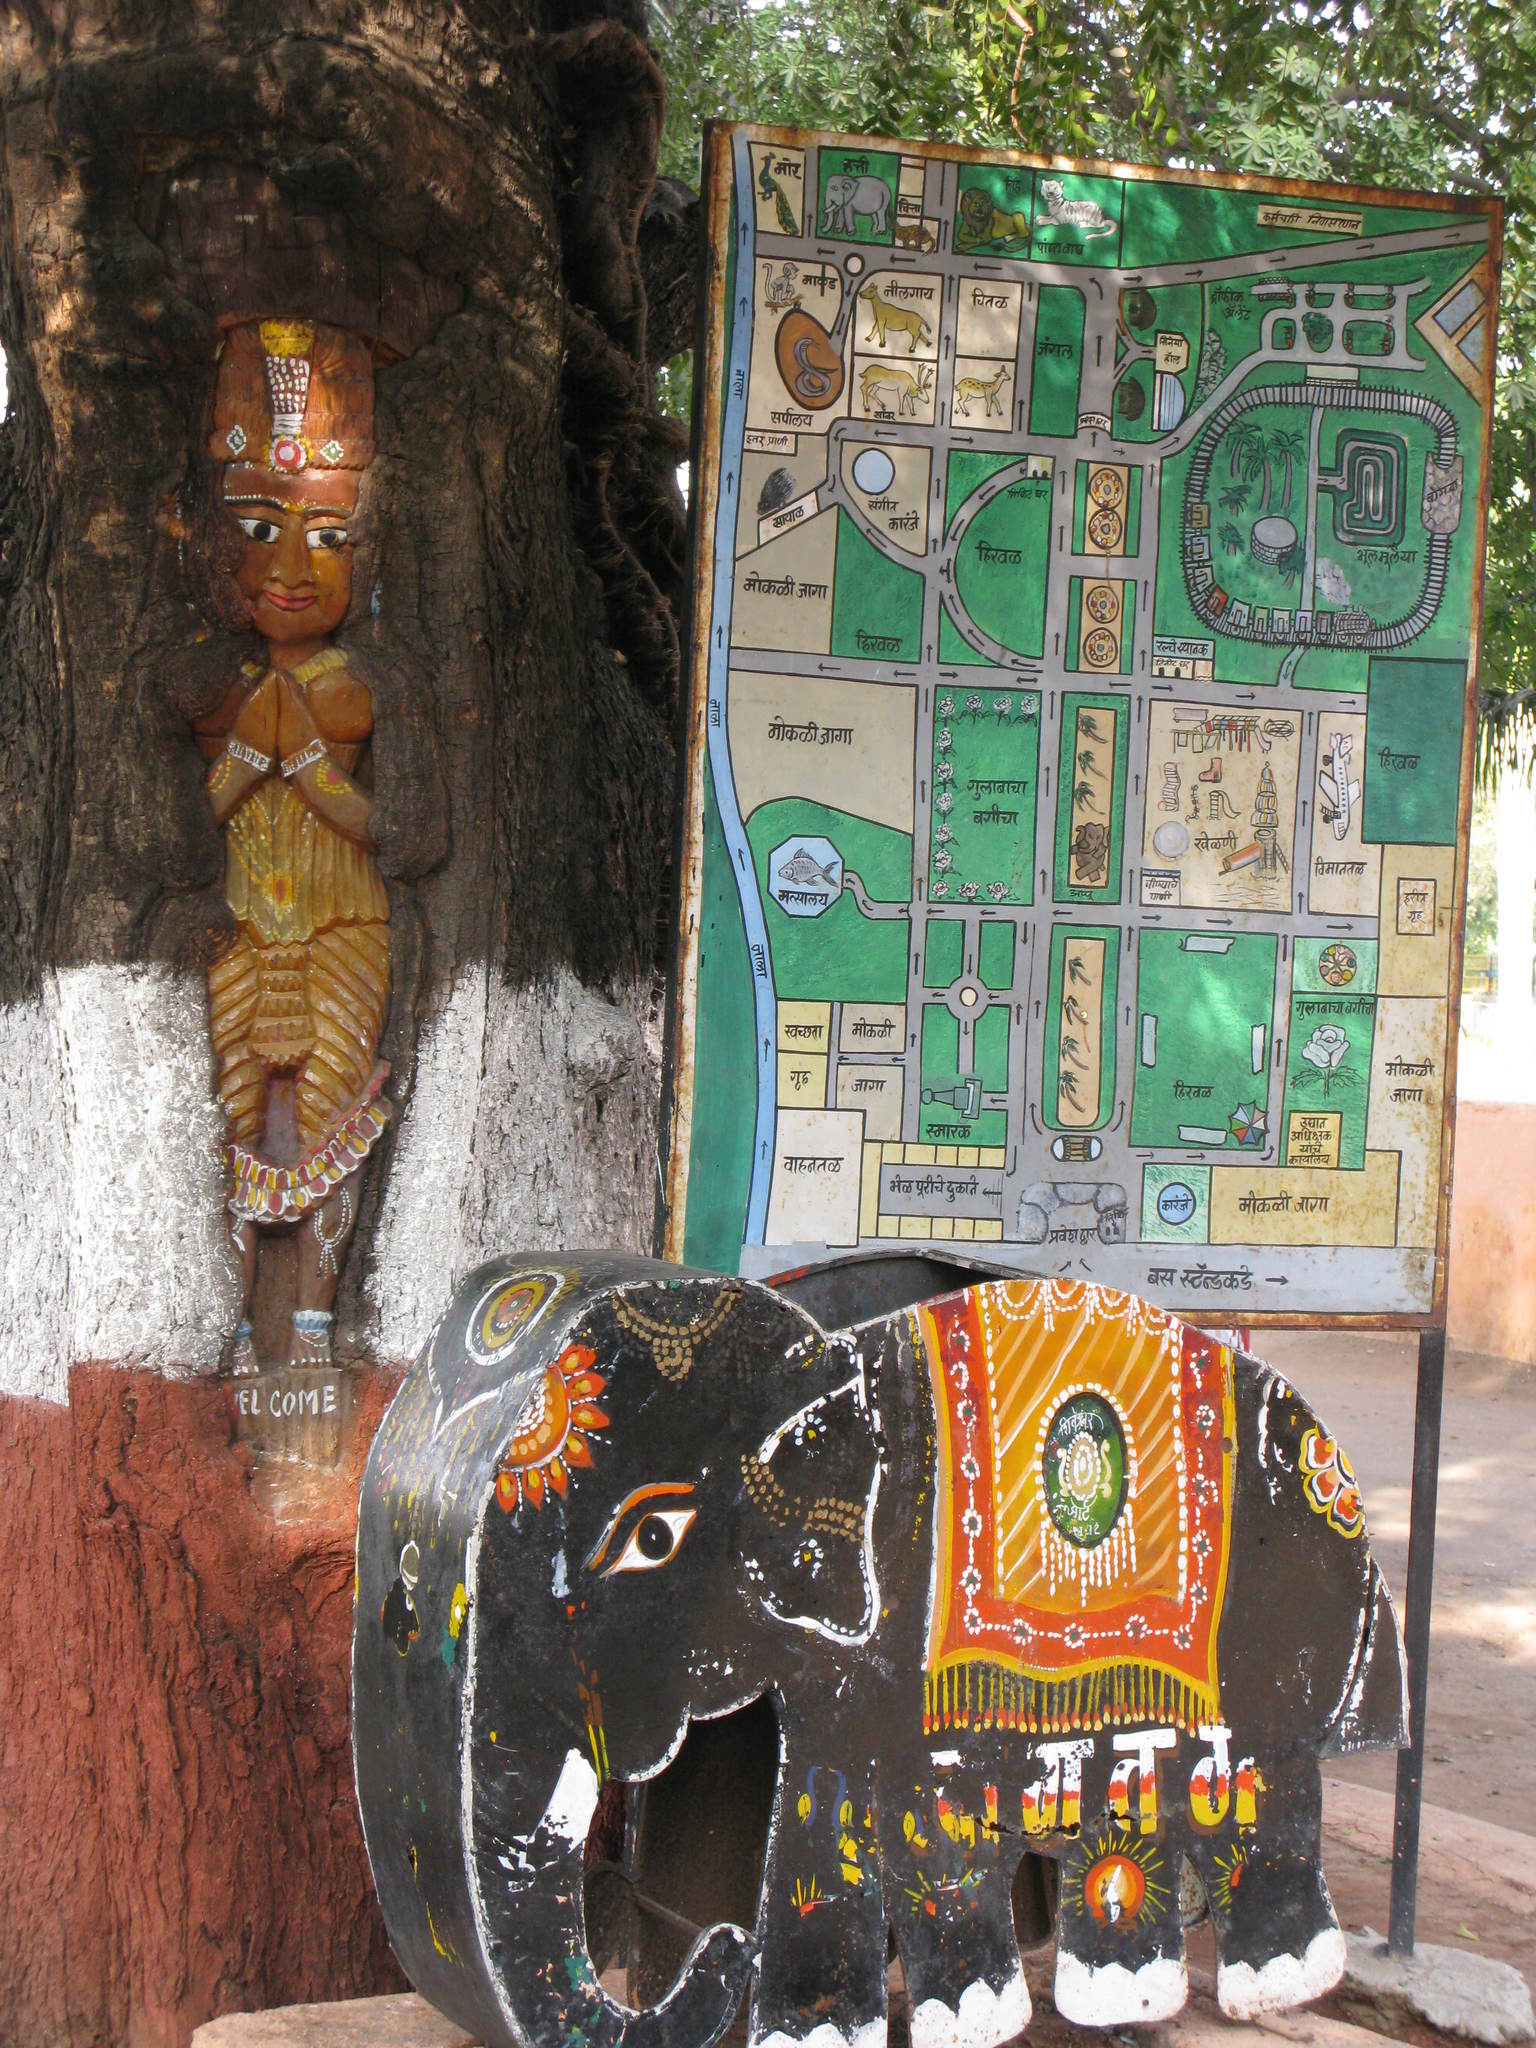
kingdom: Plantae
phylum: Tracheophyta
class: Magnoliopsida
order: Sapindales
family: Meliaceae
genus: Azadirachta
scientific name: Azadirachta indica
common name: Neem
